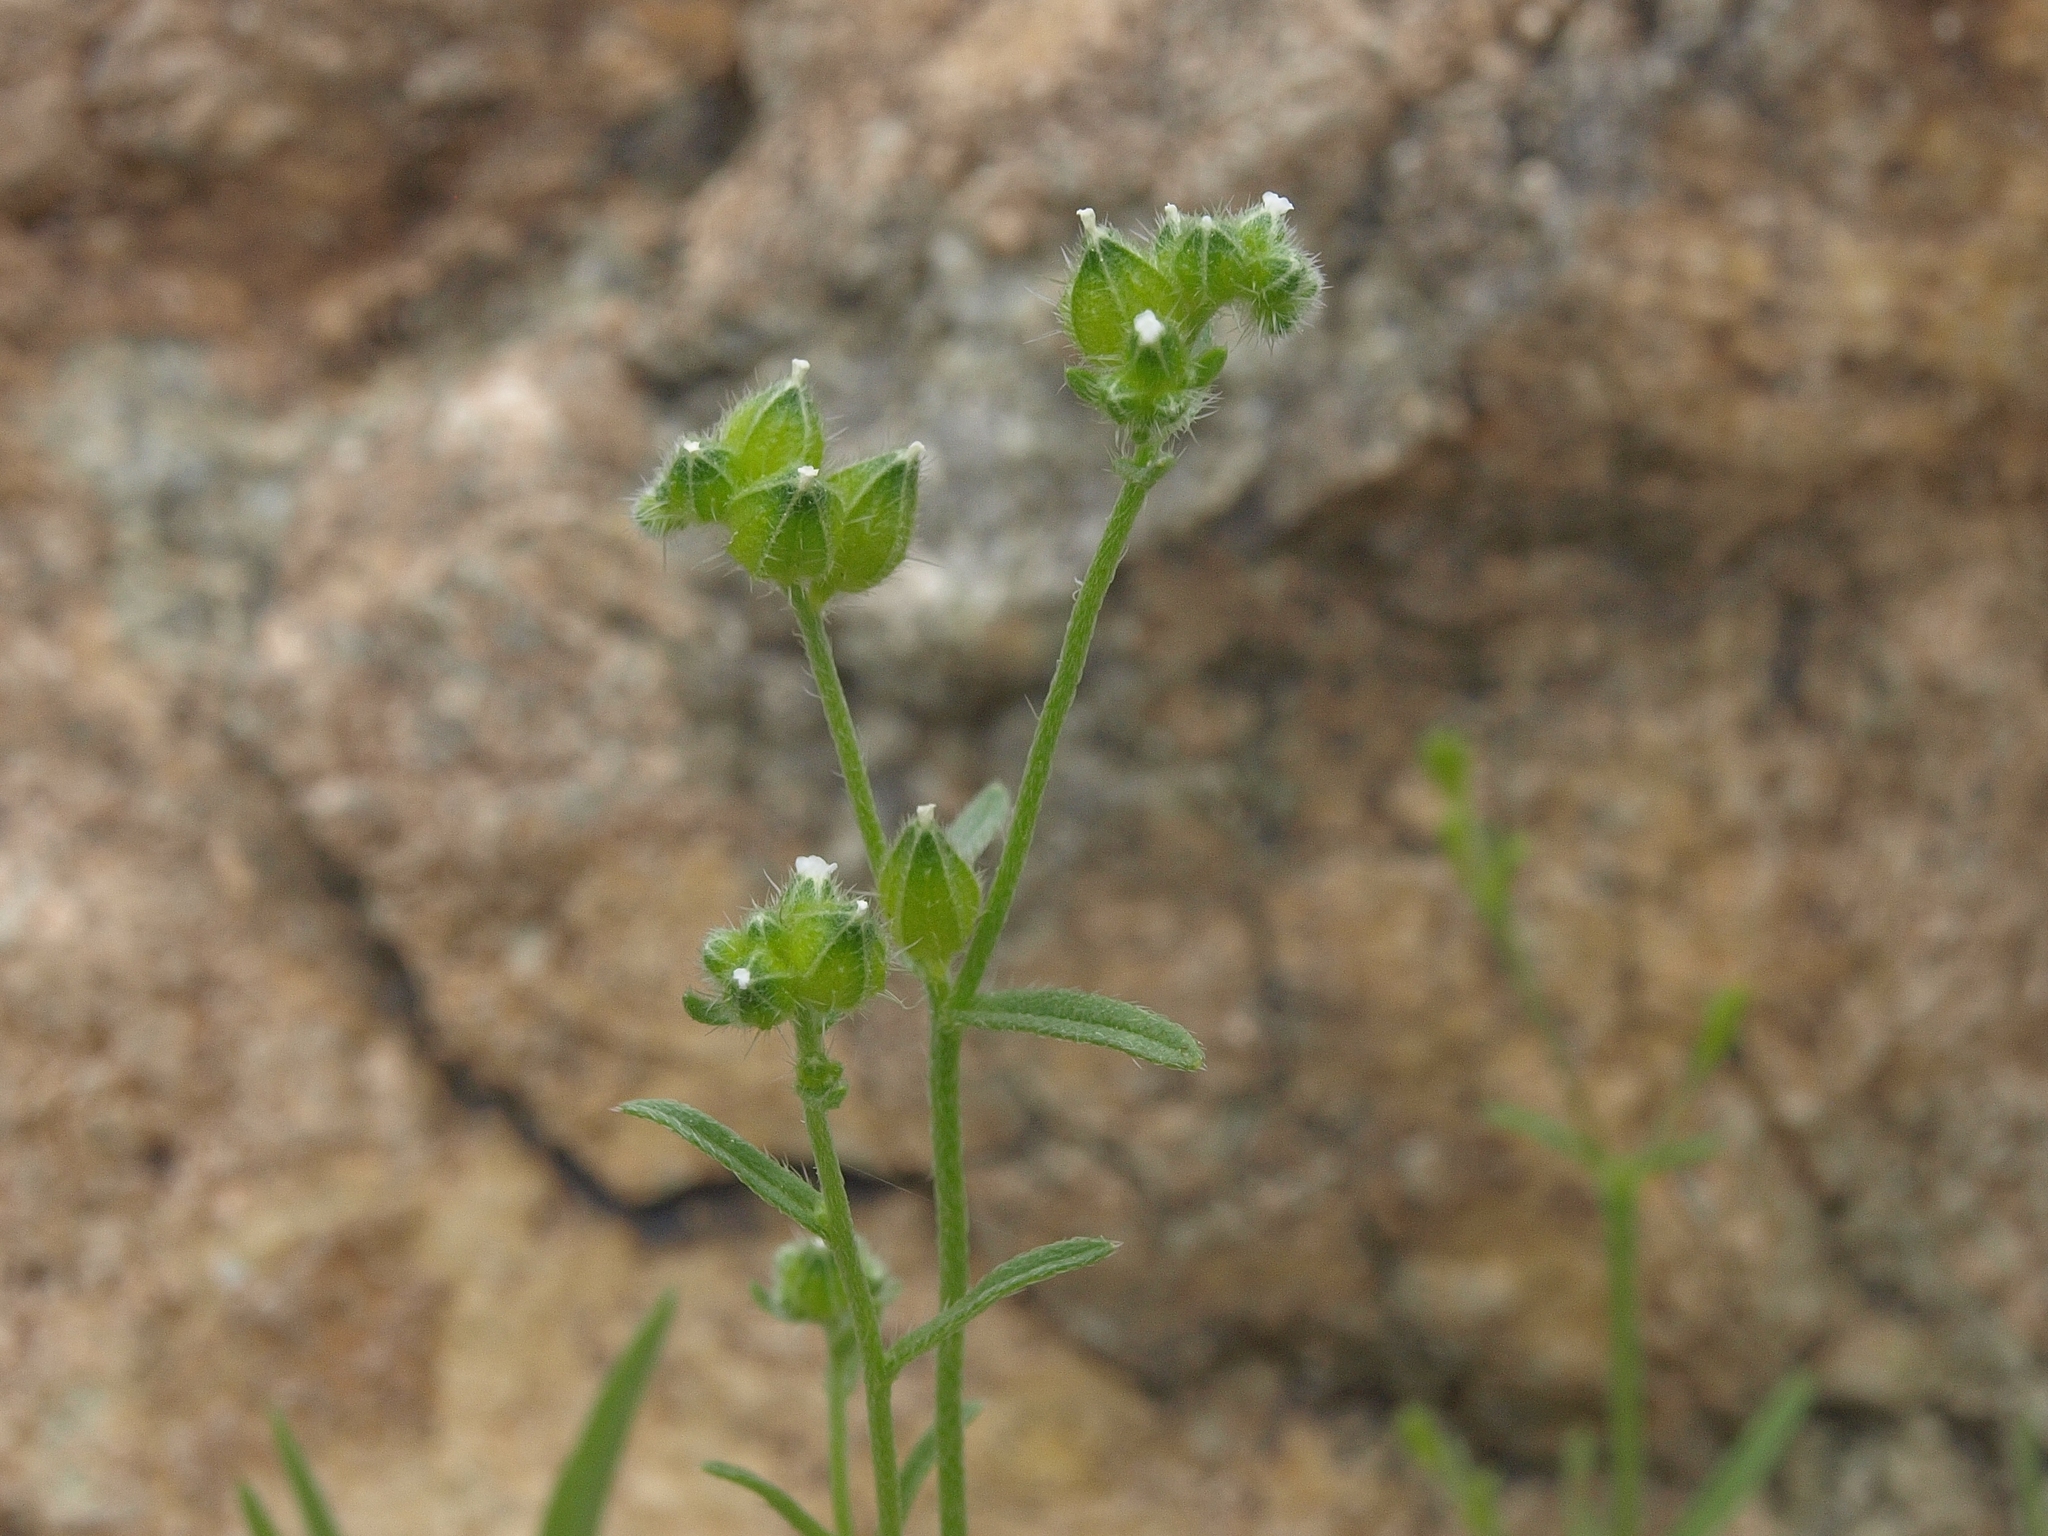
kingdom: Plantae
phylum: Tracheophyta
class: Magnoliopsida
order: Boraginales
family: Boraginaceae
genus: Cryptantha
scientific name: Cryptantha pterocarya
